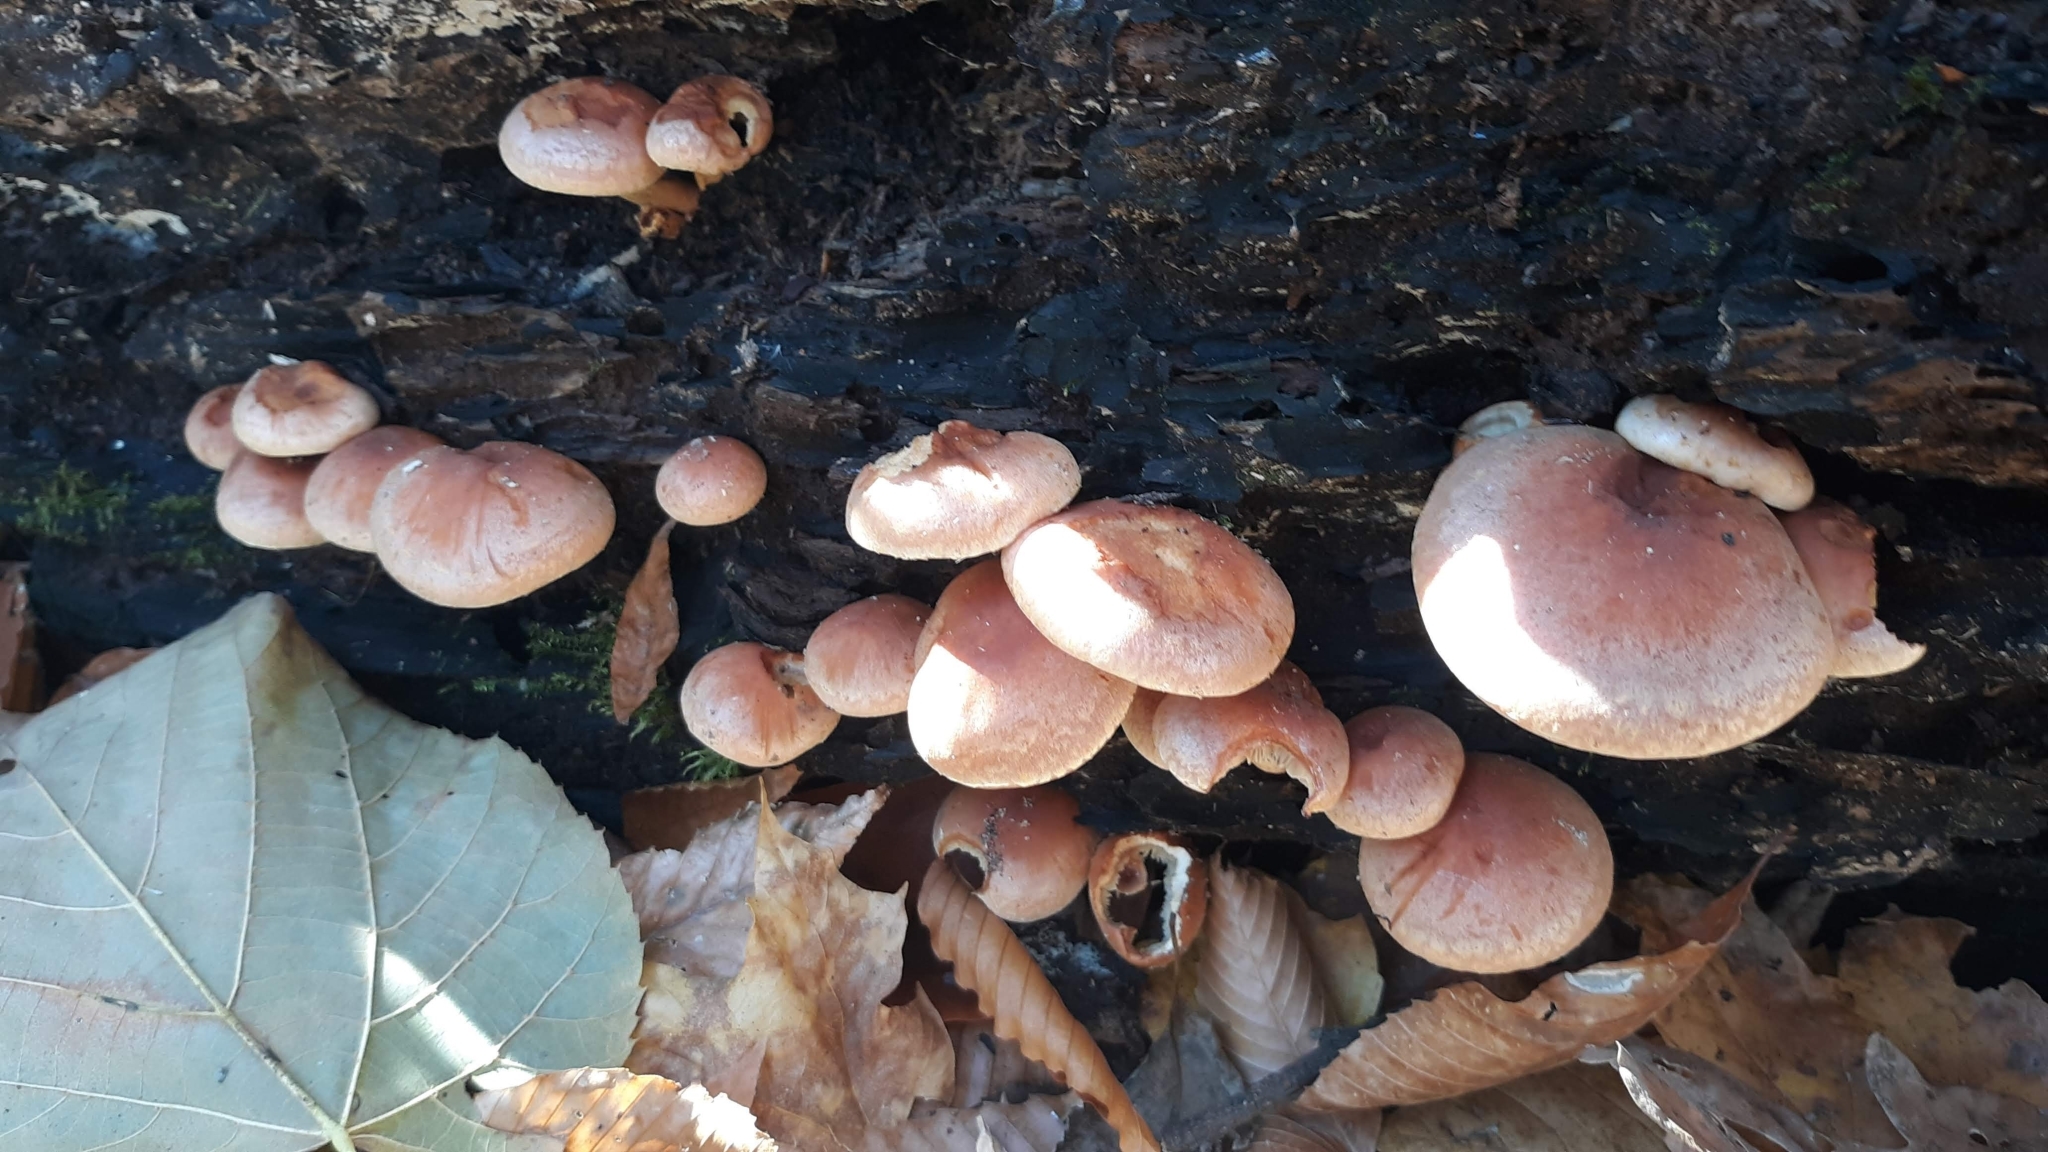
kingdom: Fungi
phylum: Basidiomycota
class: Agaricomycetes
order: Agaricales
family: Strophariaceae
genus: Hypholoma
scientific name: Hypholoma lateritium
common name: Brick caps
